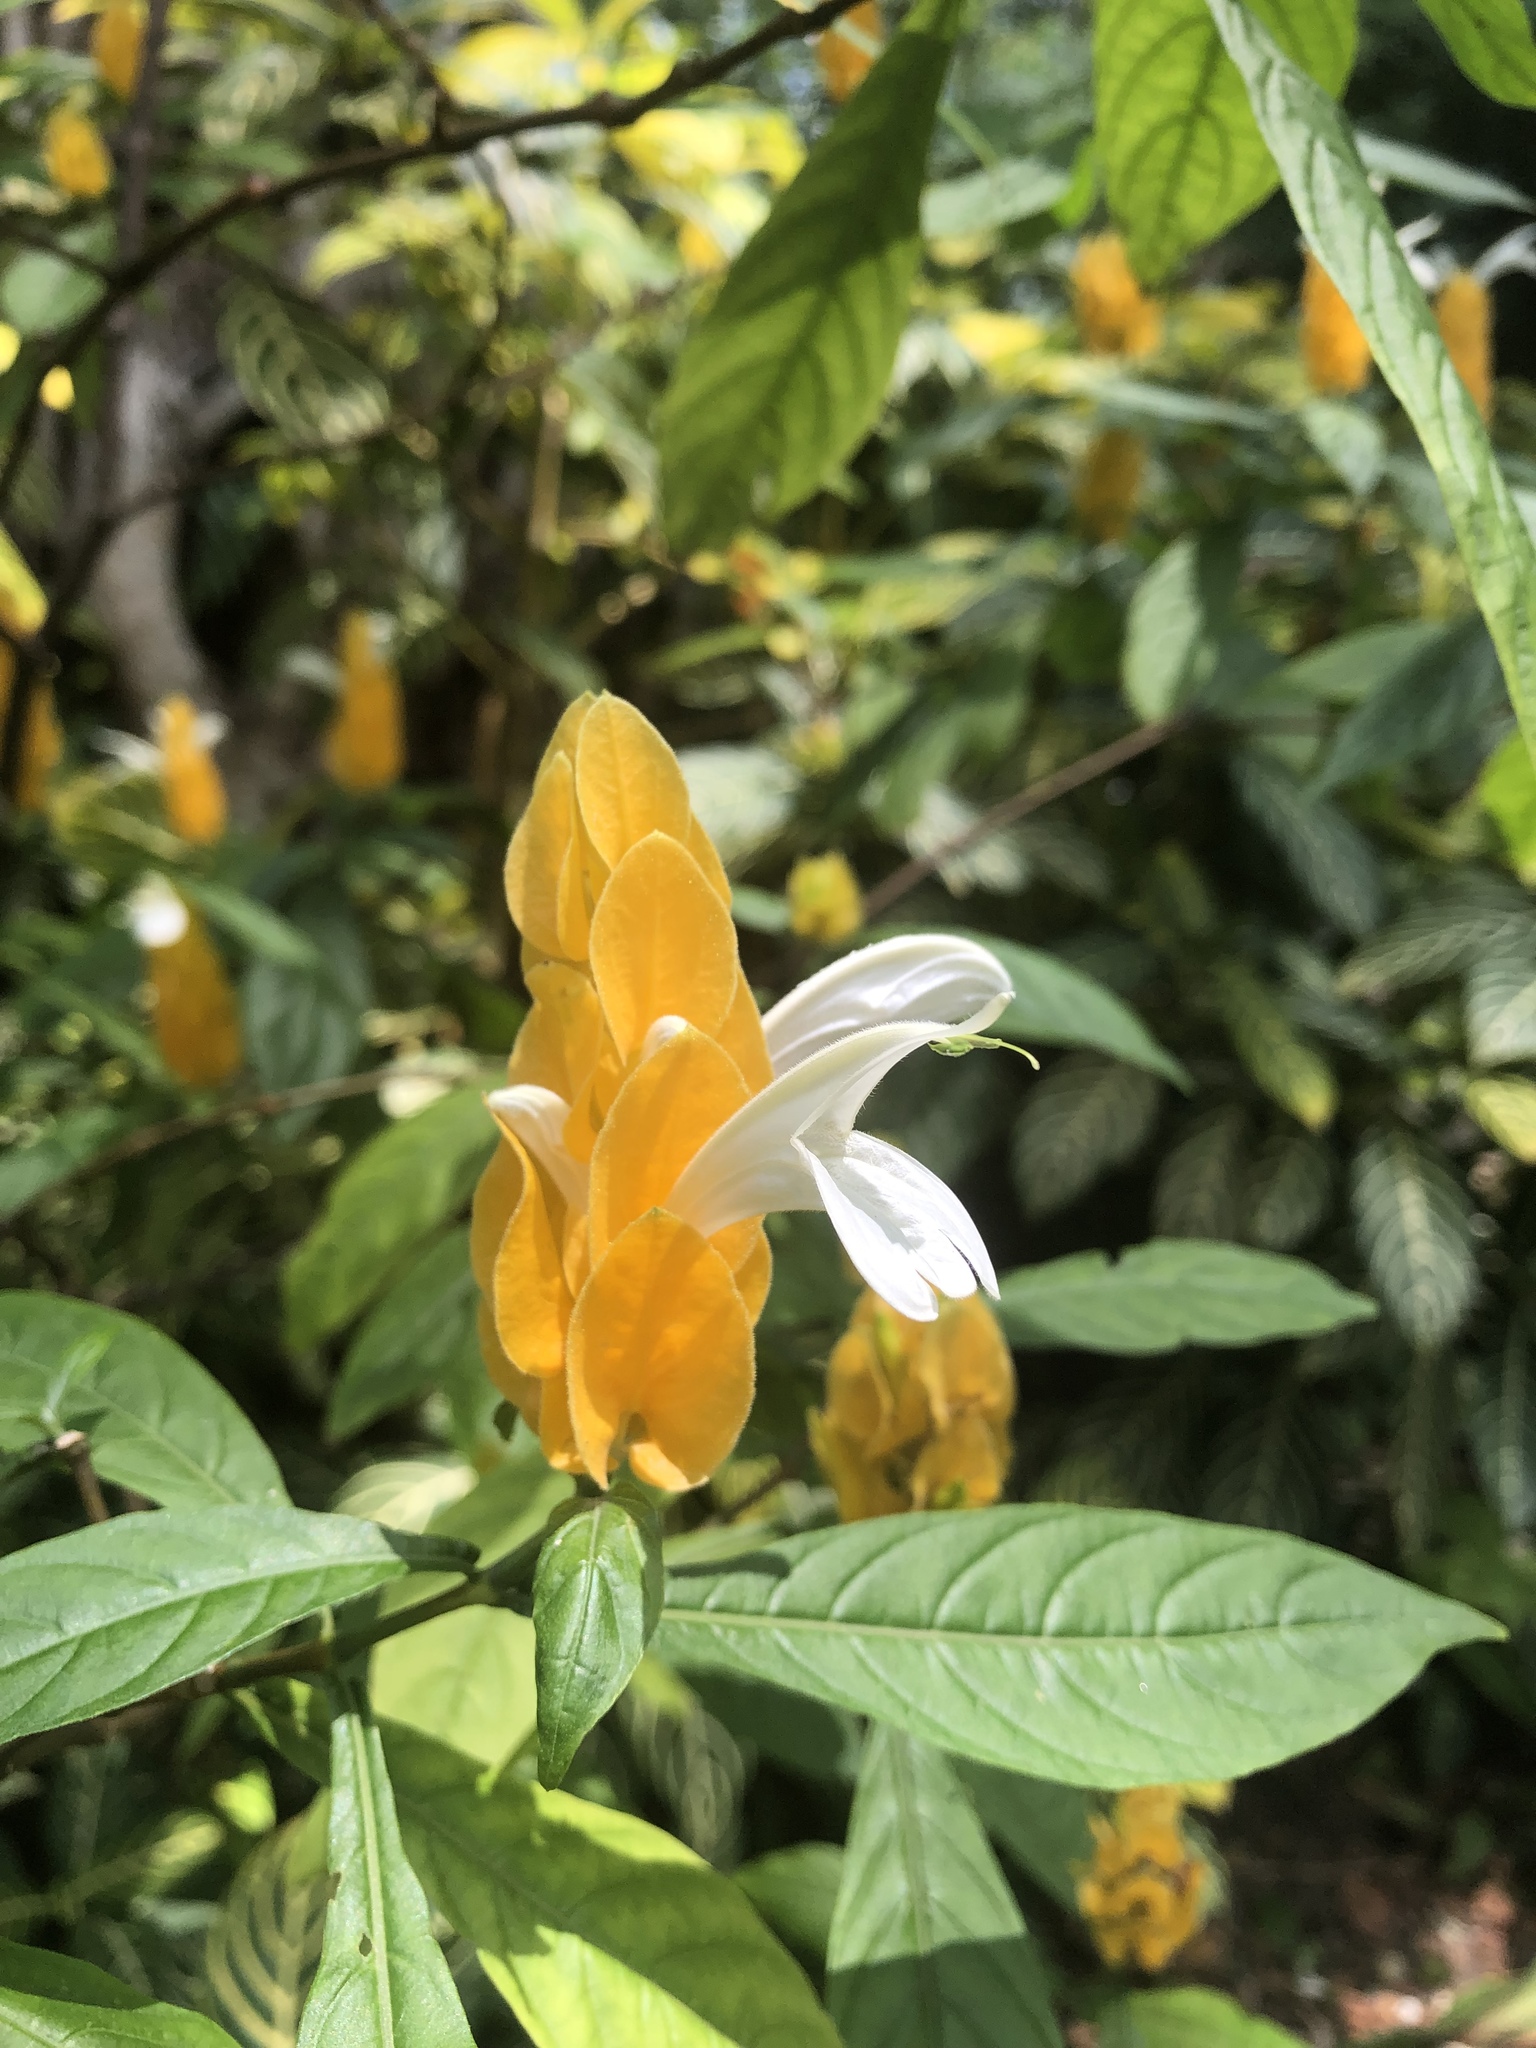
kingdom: Plantae
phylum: Tracheophyta
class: Magnoliopsida
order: Lamiales
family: Acanthaceae
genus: Pachystachys
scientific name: Pachystachys lutea
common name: Golden shrimp-plant
